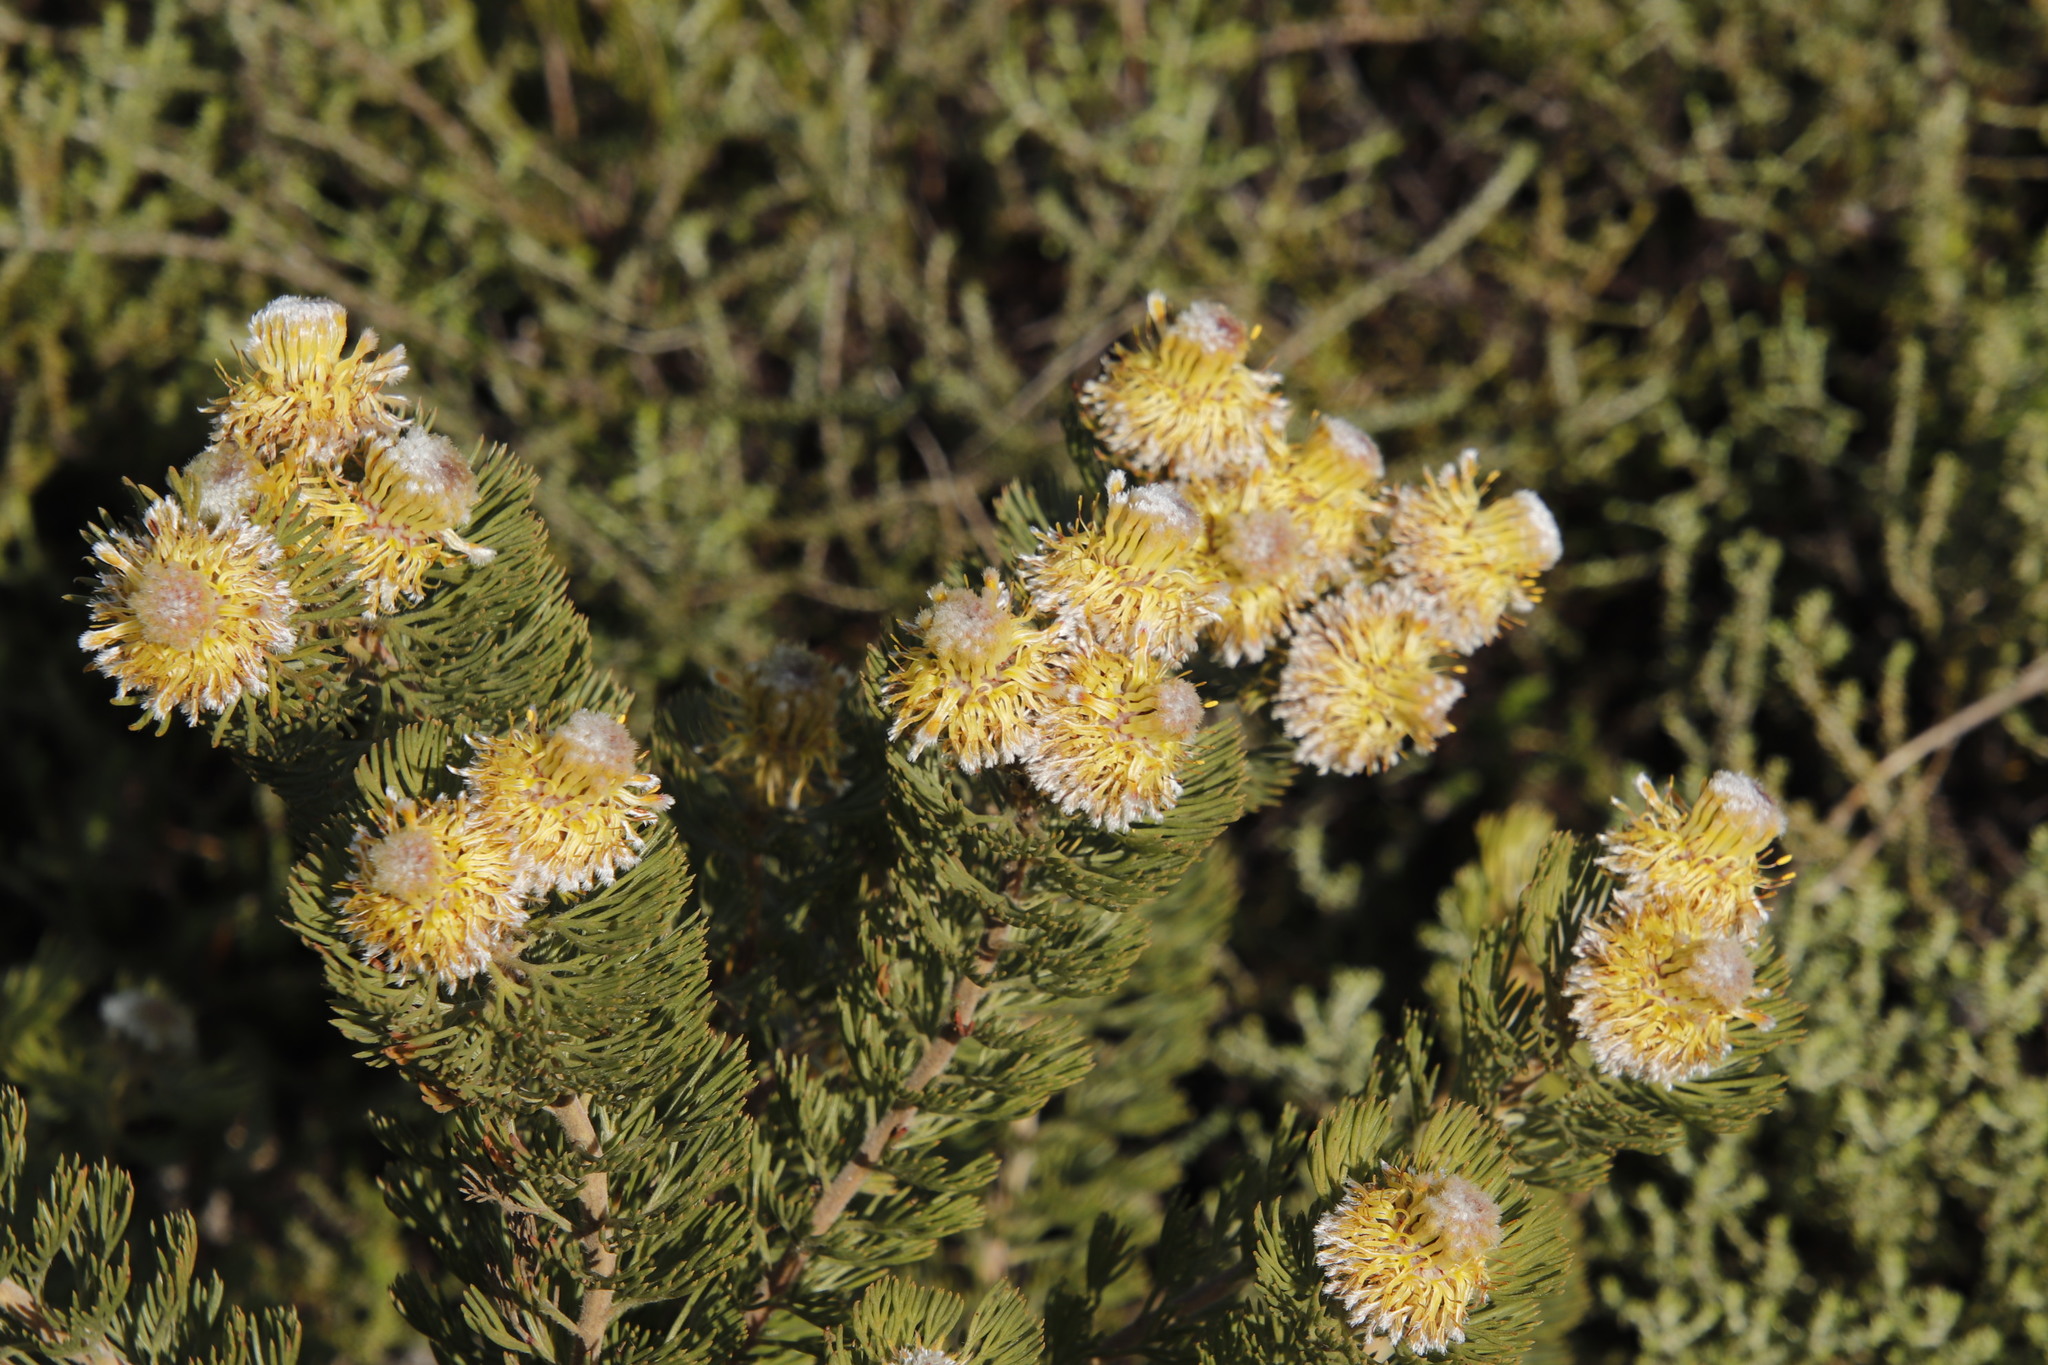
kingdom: Plantae
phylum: Tracheophyta
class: Magnoliopsida
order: Proteales
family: Proteaceae
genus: Serruria
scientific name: Serruria villosa
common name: Golden spiderhead
